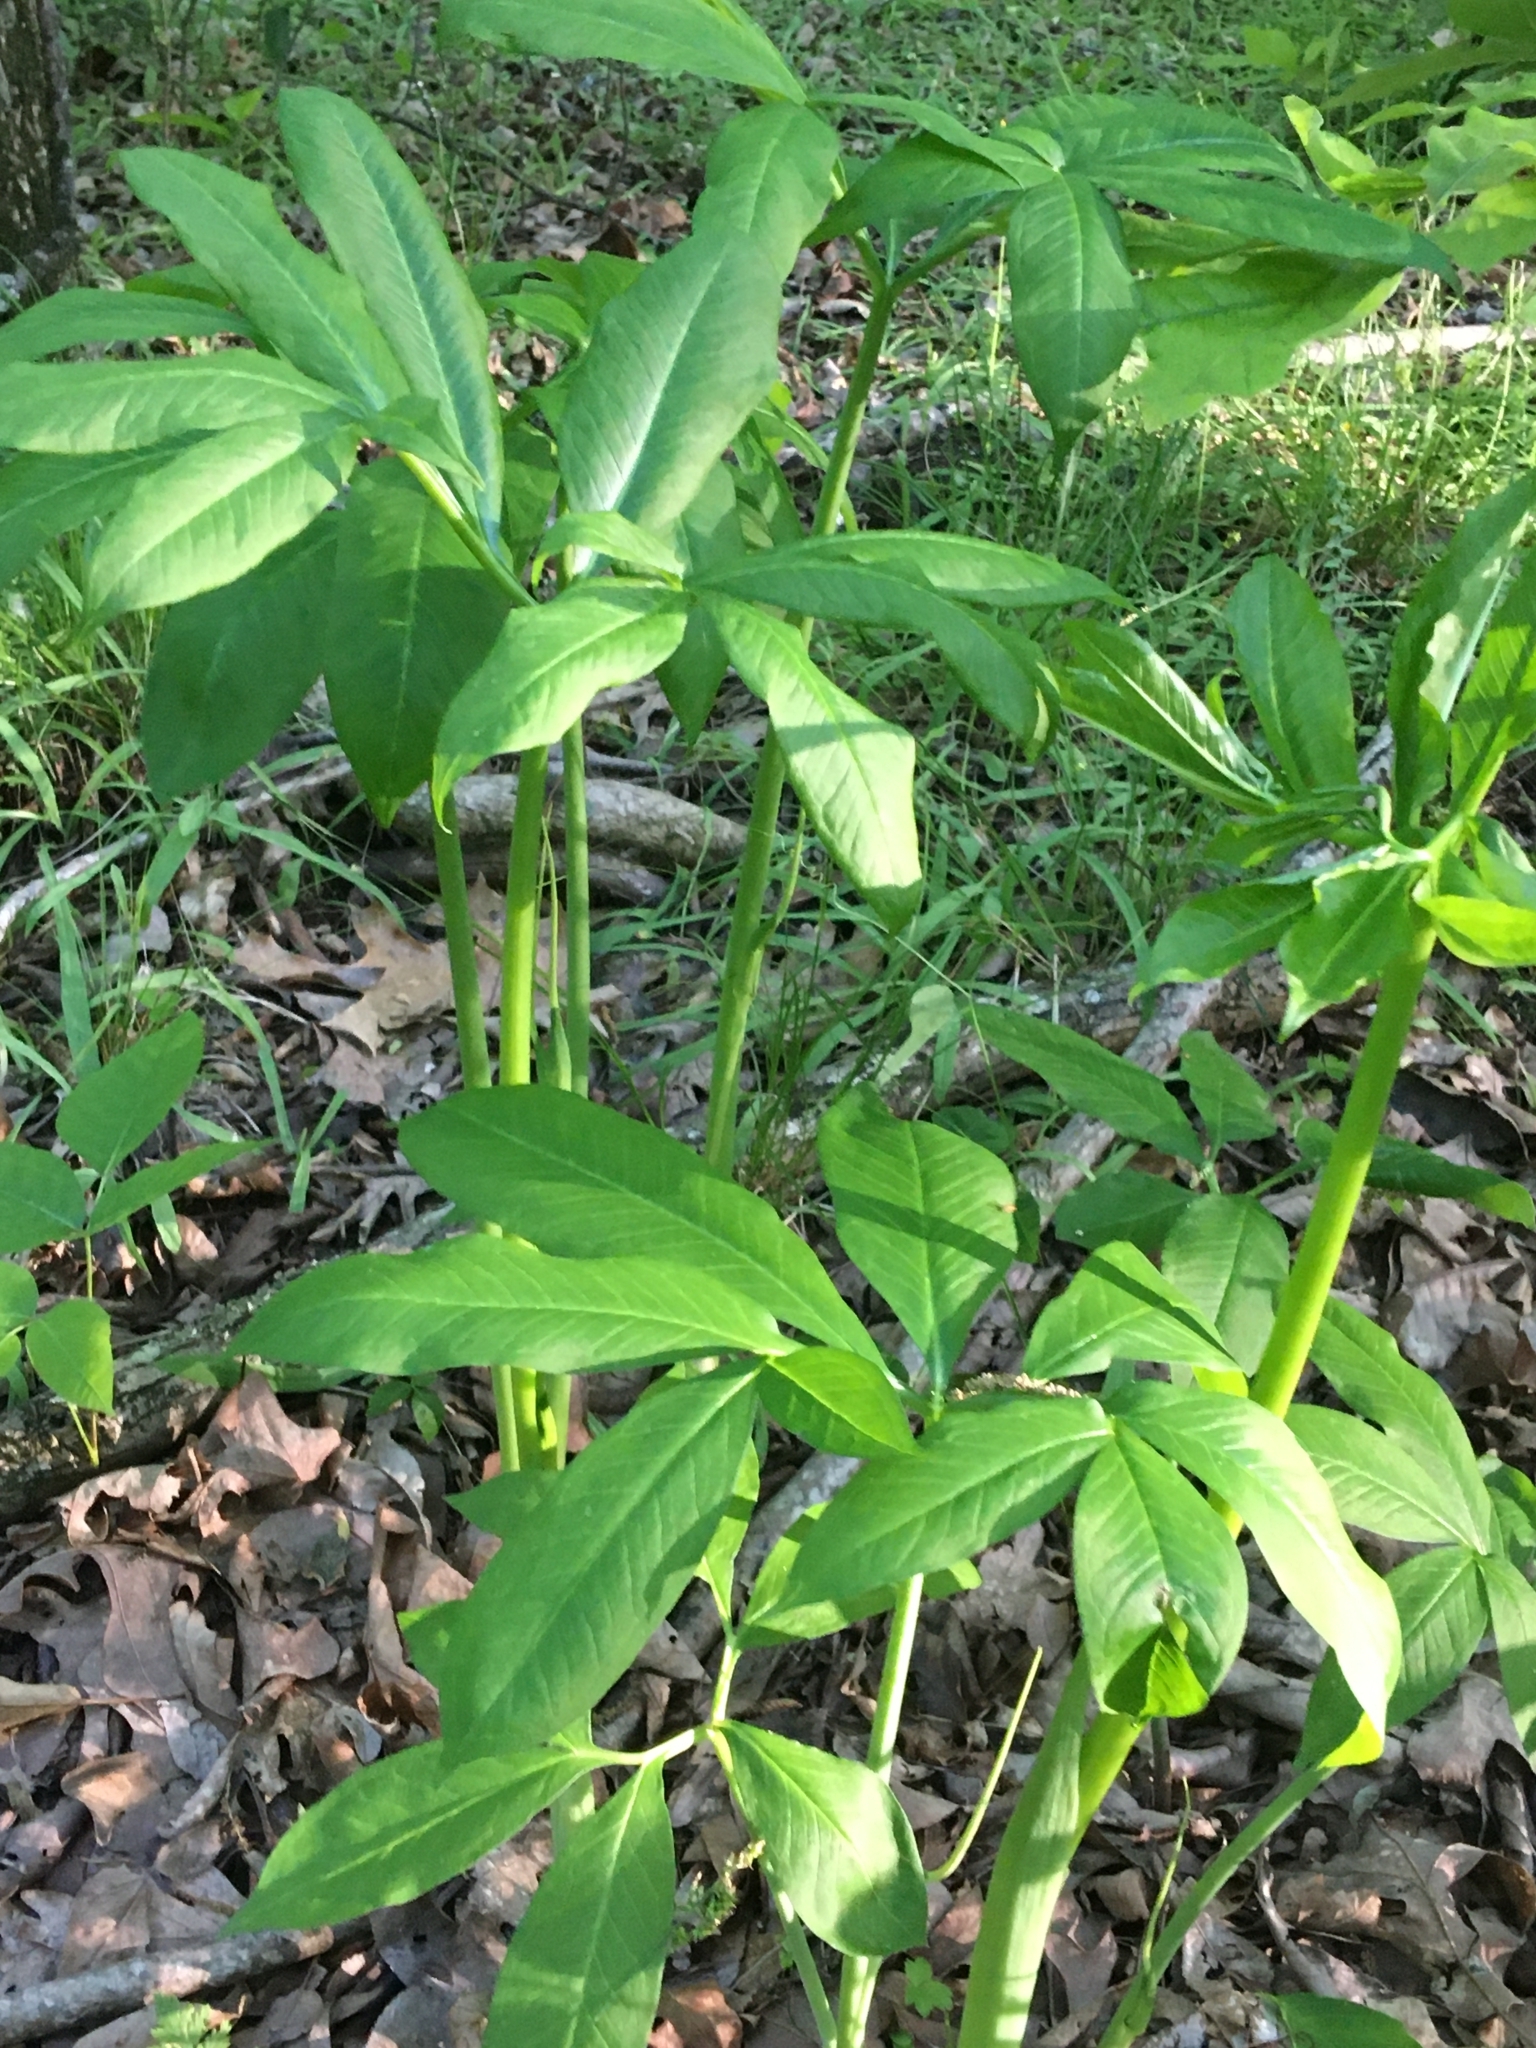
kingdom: Plantae
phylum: Tracheophyta
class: Liliopsida
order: Alismatales
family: Araceae
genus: Arisaema
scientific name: Arisaema dracontium
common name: Dragon-arum
